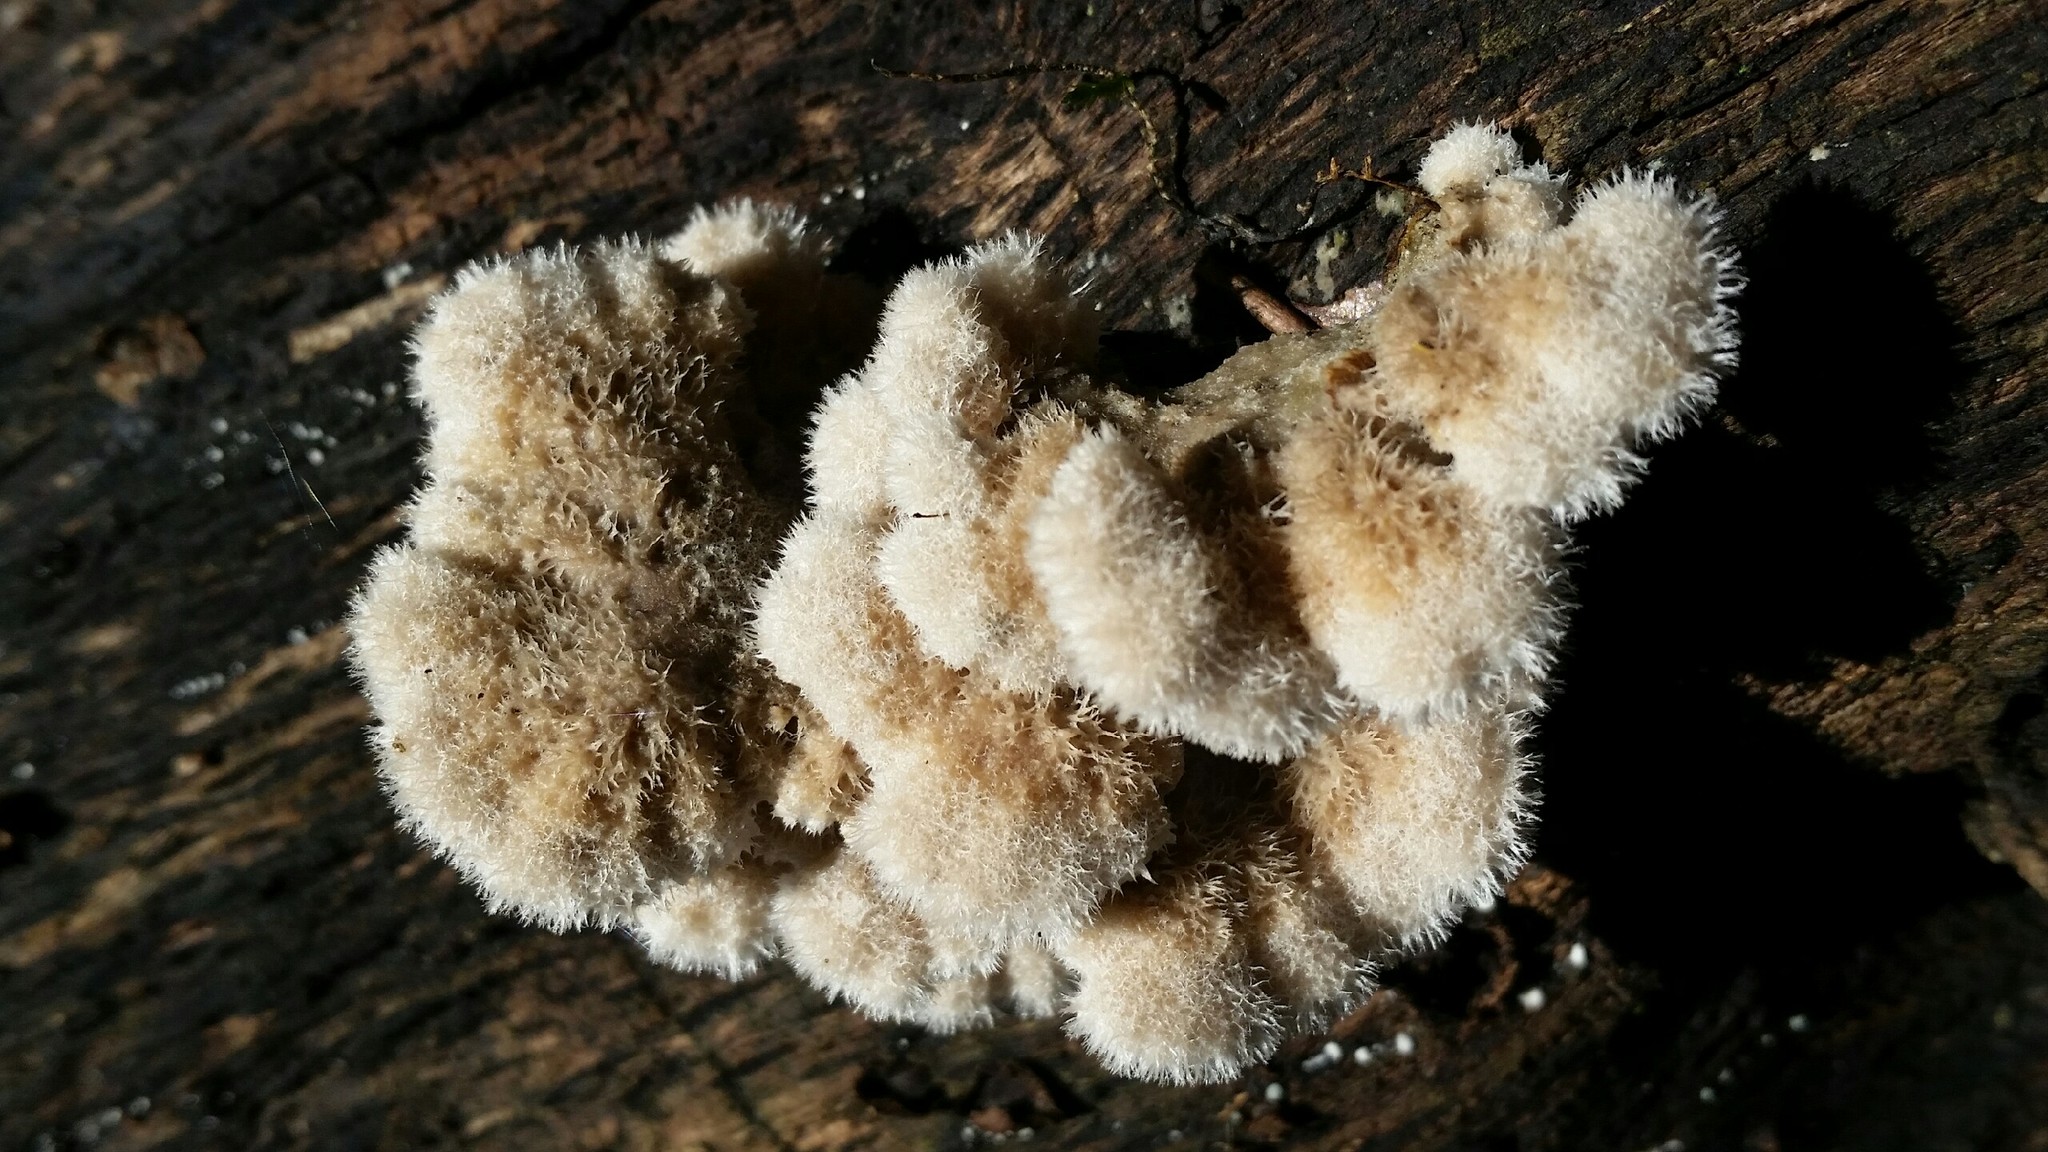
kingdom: Fungi
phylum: Basidiomycota
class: Agaricomycetes
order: Agaricales
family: Schizophyllaceae
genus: Schizophyllum
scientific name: Schizophyllum commune
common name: Common porecrust
